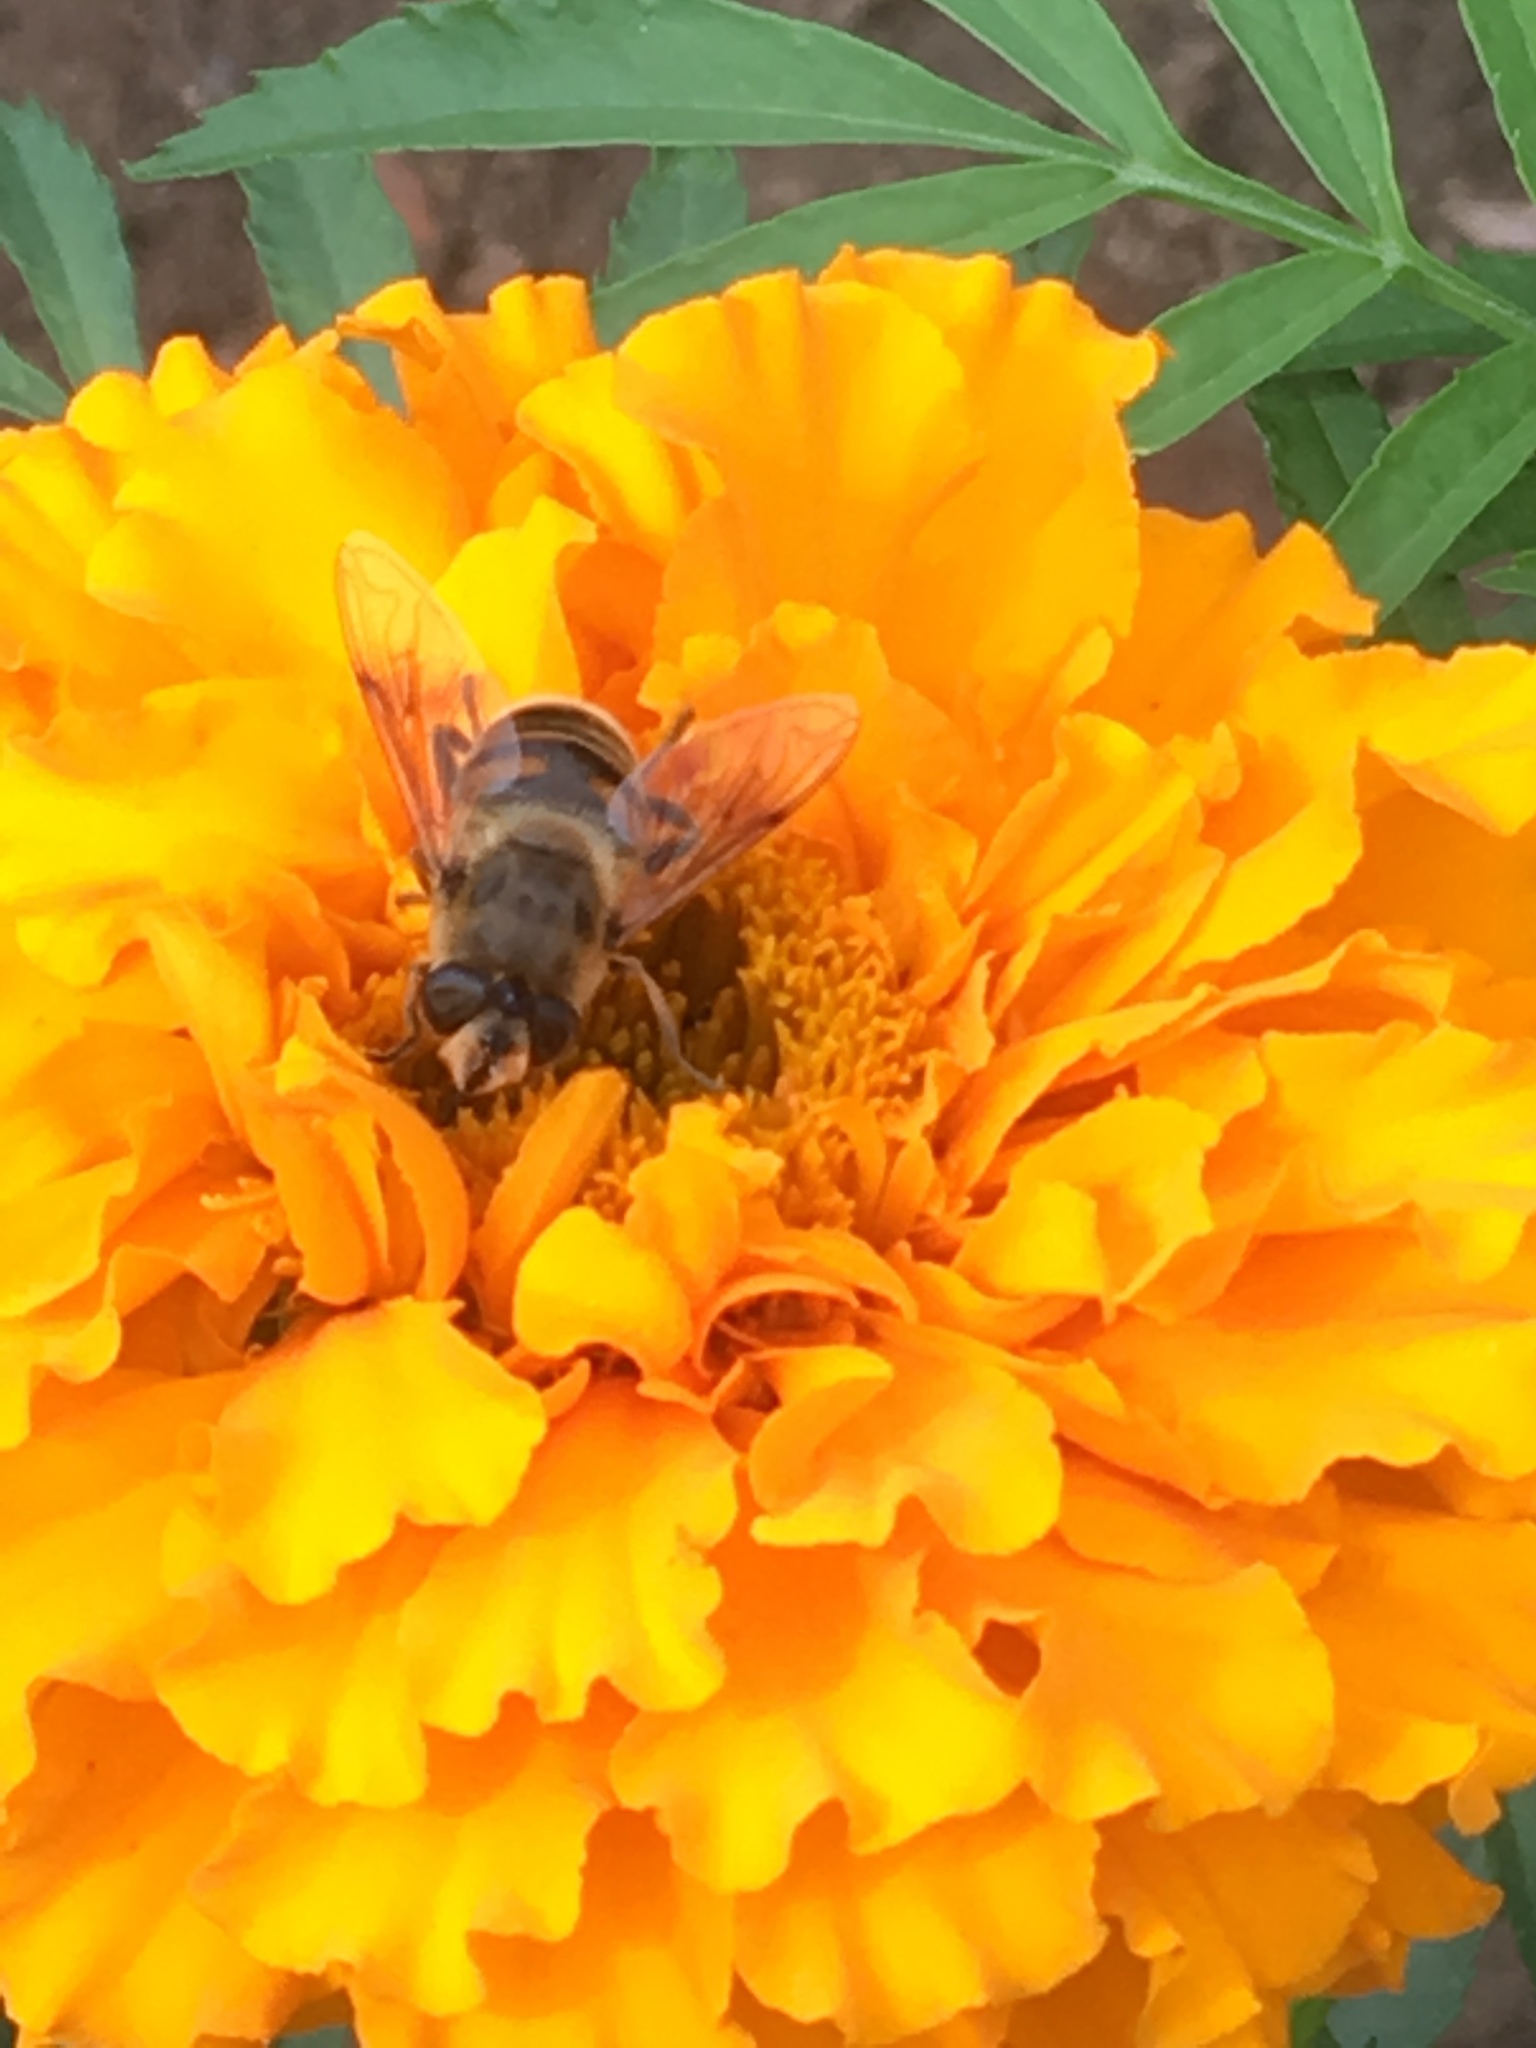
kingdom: Animalia
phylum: Arthropoda
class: Insecta
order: Diptera
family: Syrphidae
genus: Eristalis
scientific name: Eristalis tenax
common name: Drone fly
